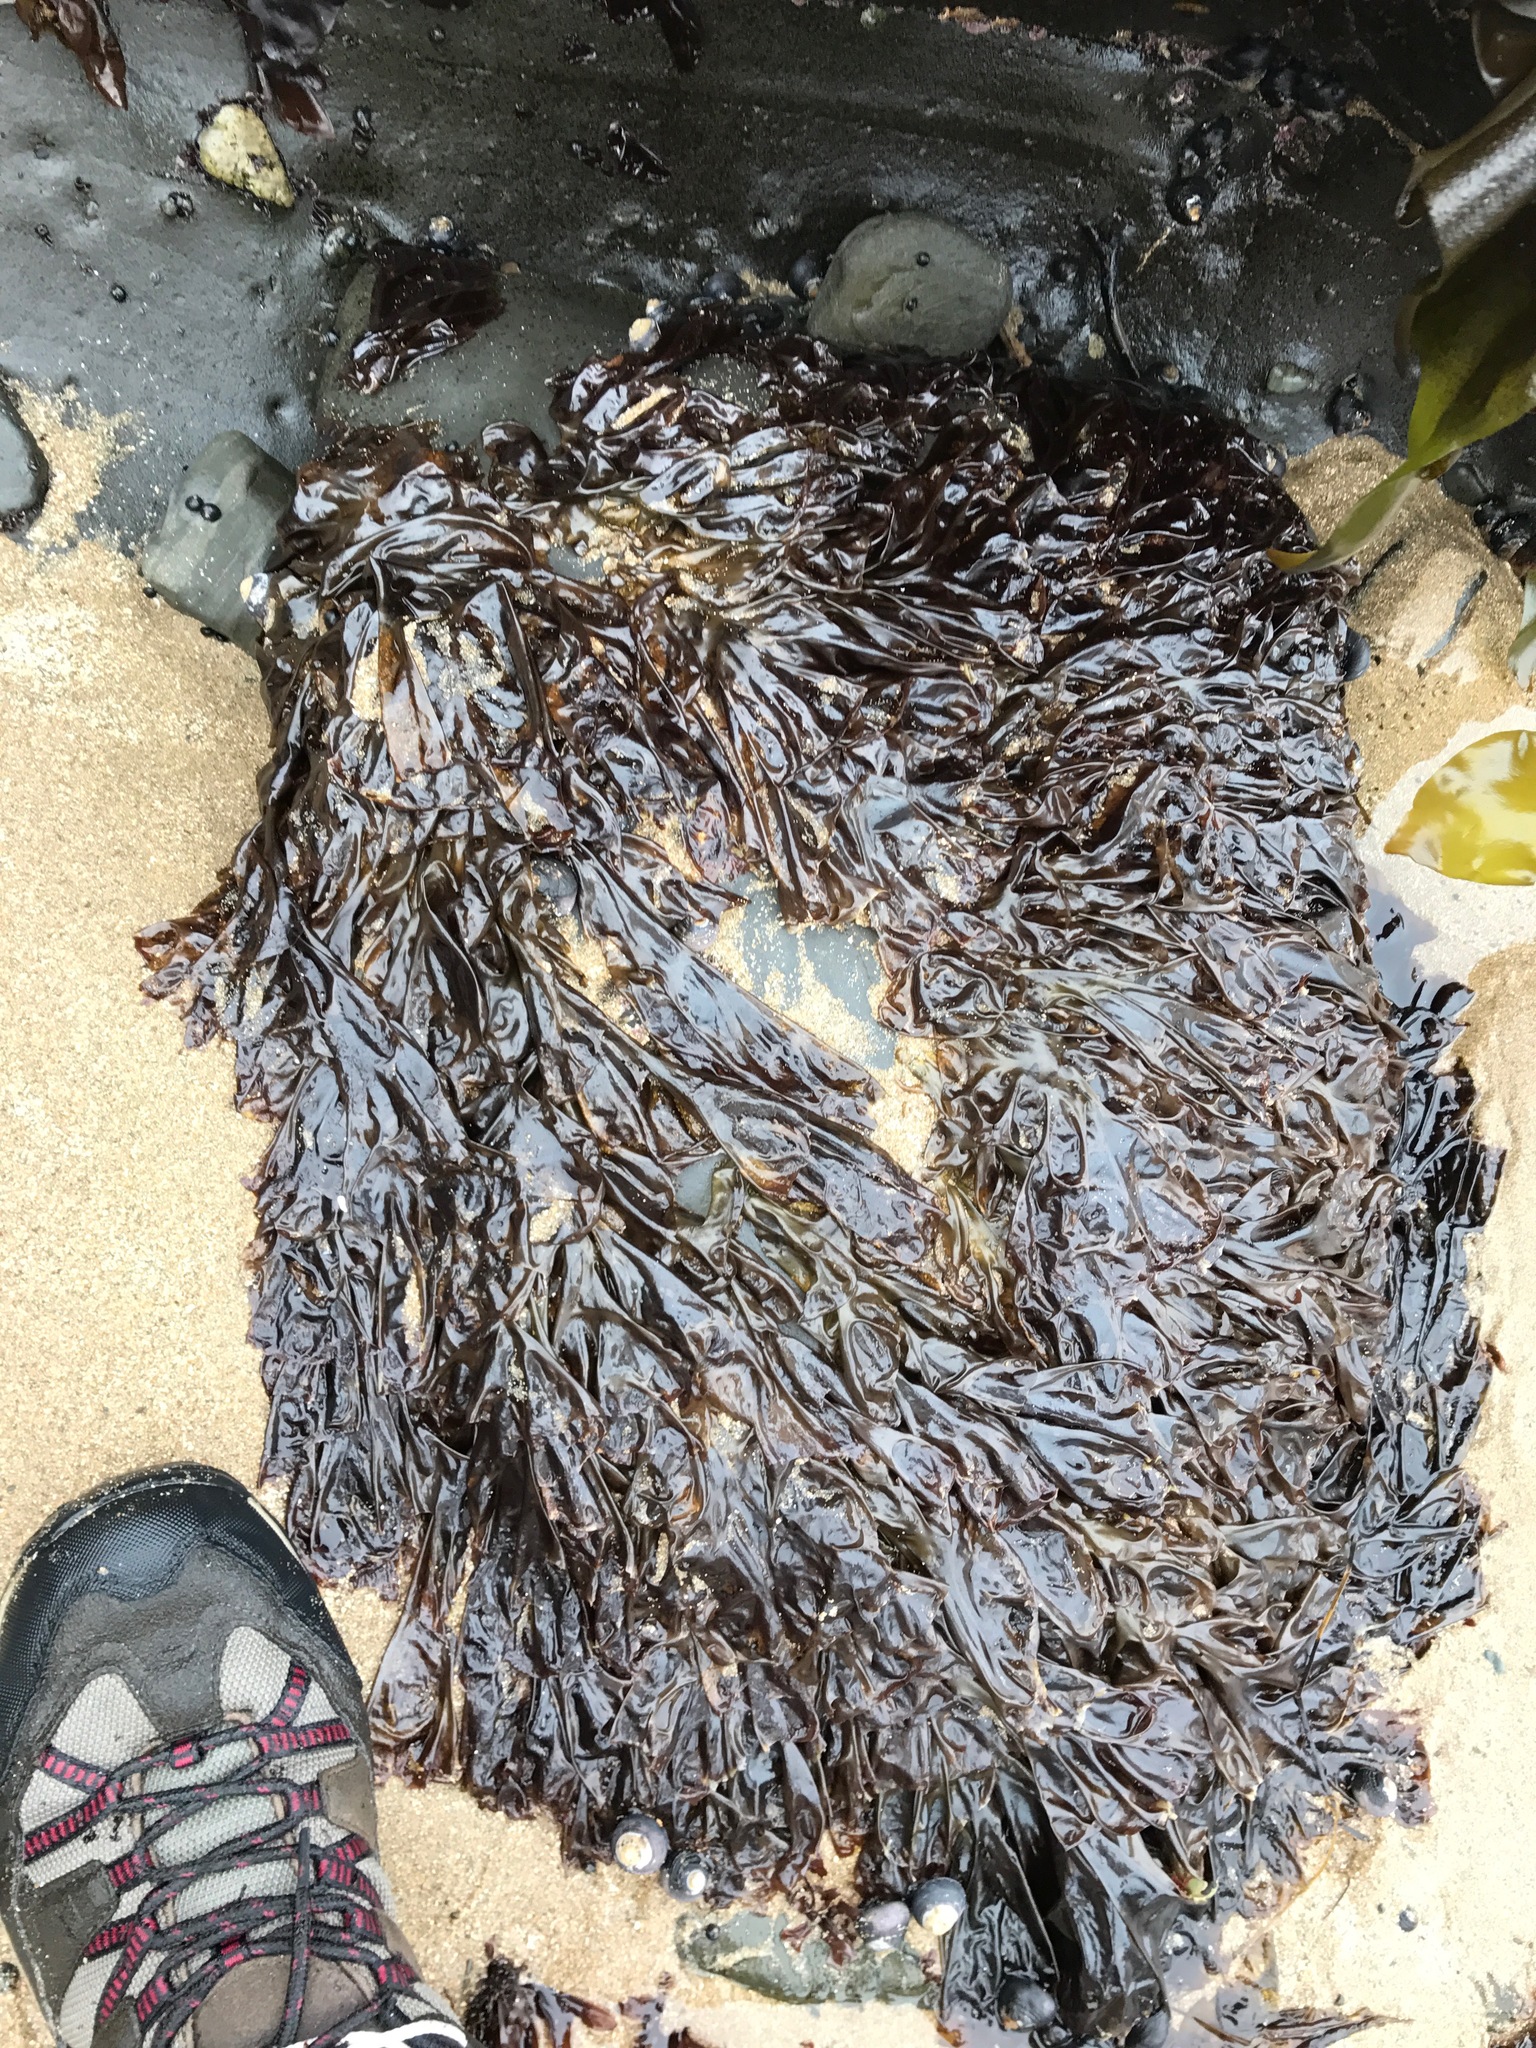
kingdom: Plantae
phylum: Rhodophyta
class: Bangiophyceae
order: Bangiales
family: Bangiaceae
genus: Neoporphyra
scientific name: Neoporphyra perforata
